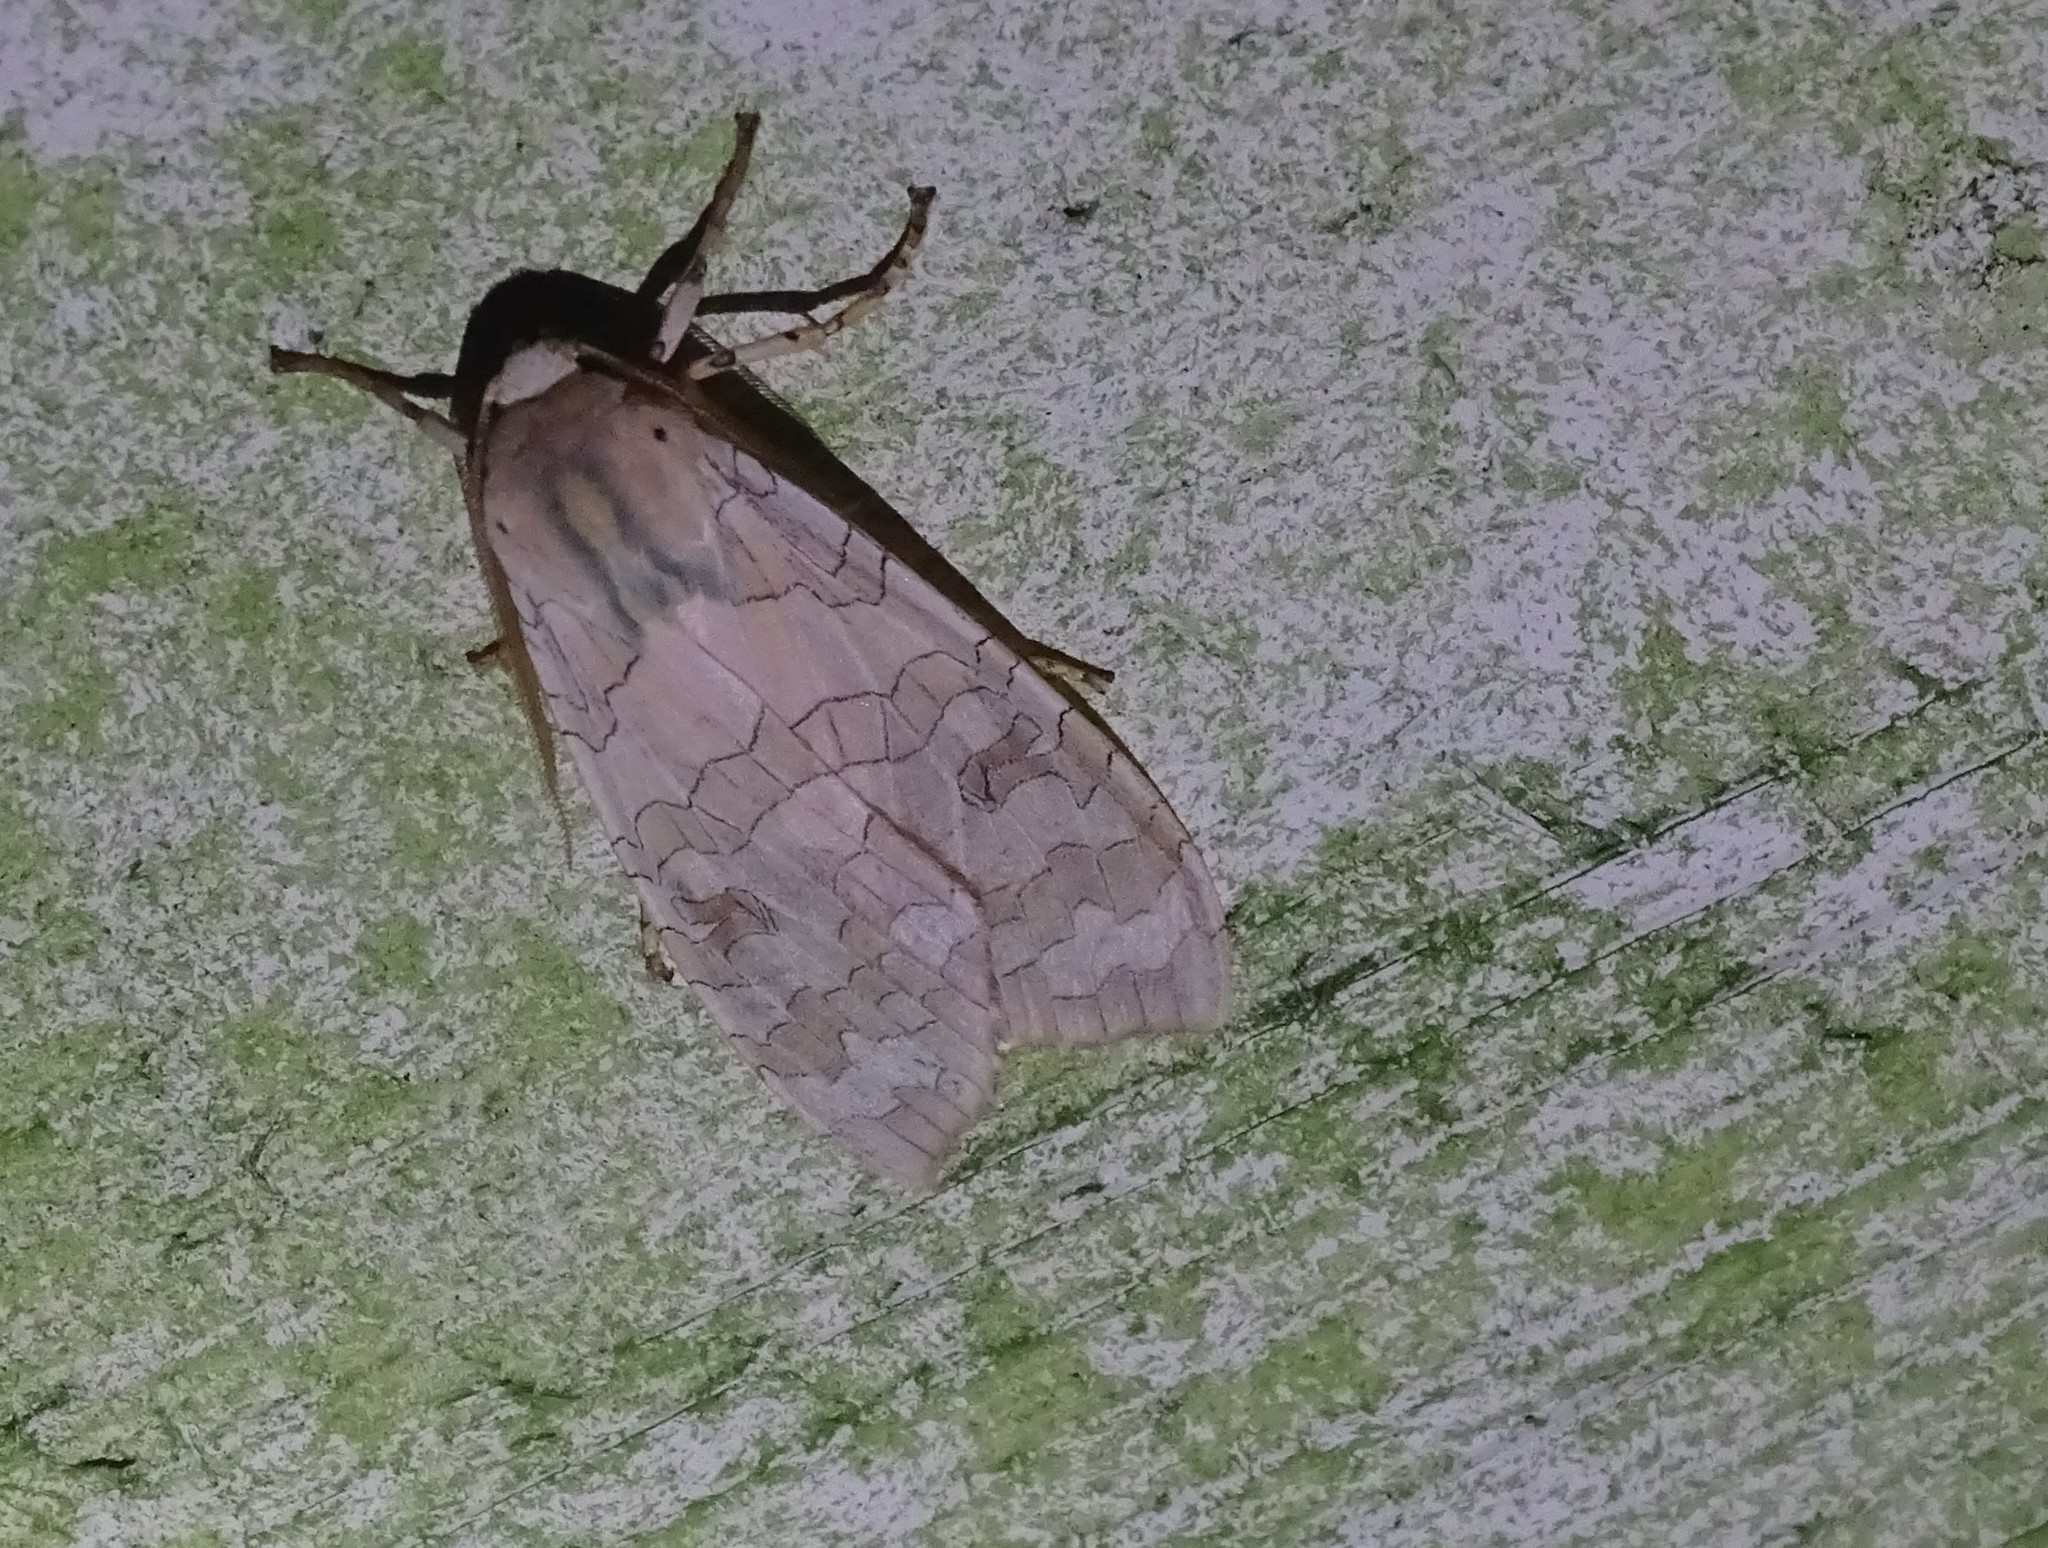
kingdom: Animalia
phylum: Arthropoda
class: Insecta
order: Lepidoptera
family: Erebidae
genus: Halysidota
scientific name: Halysidota
